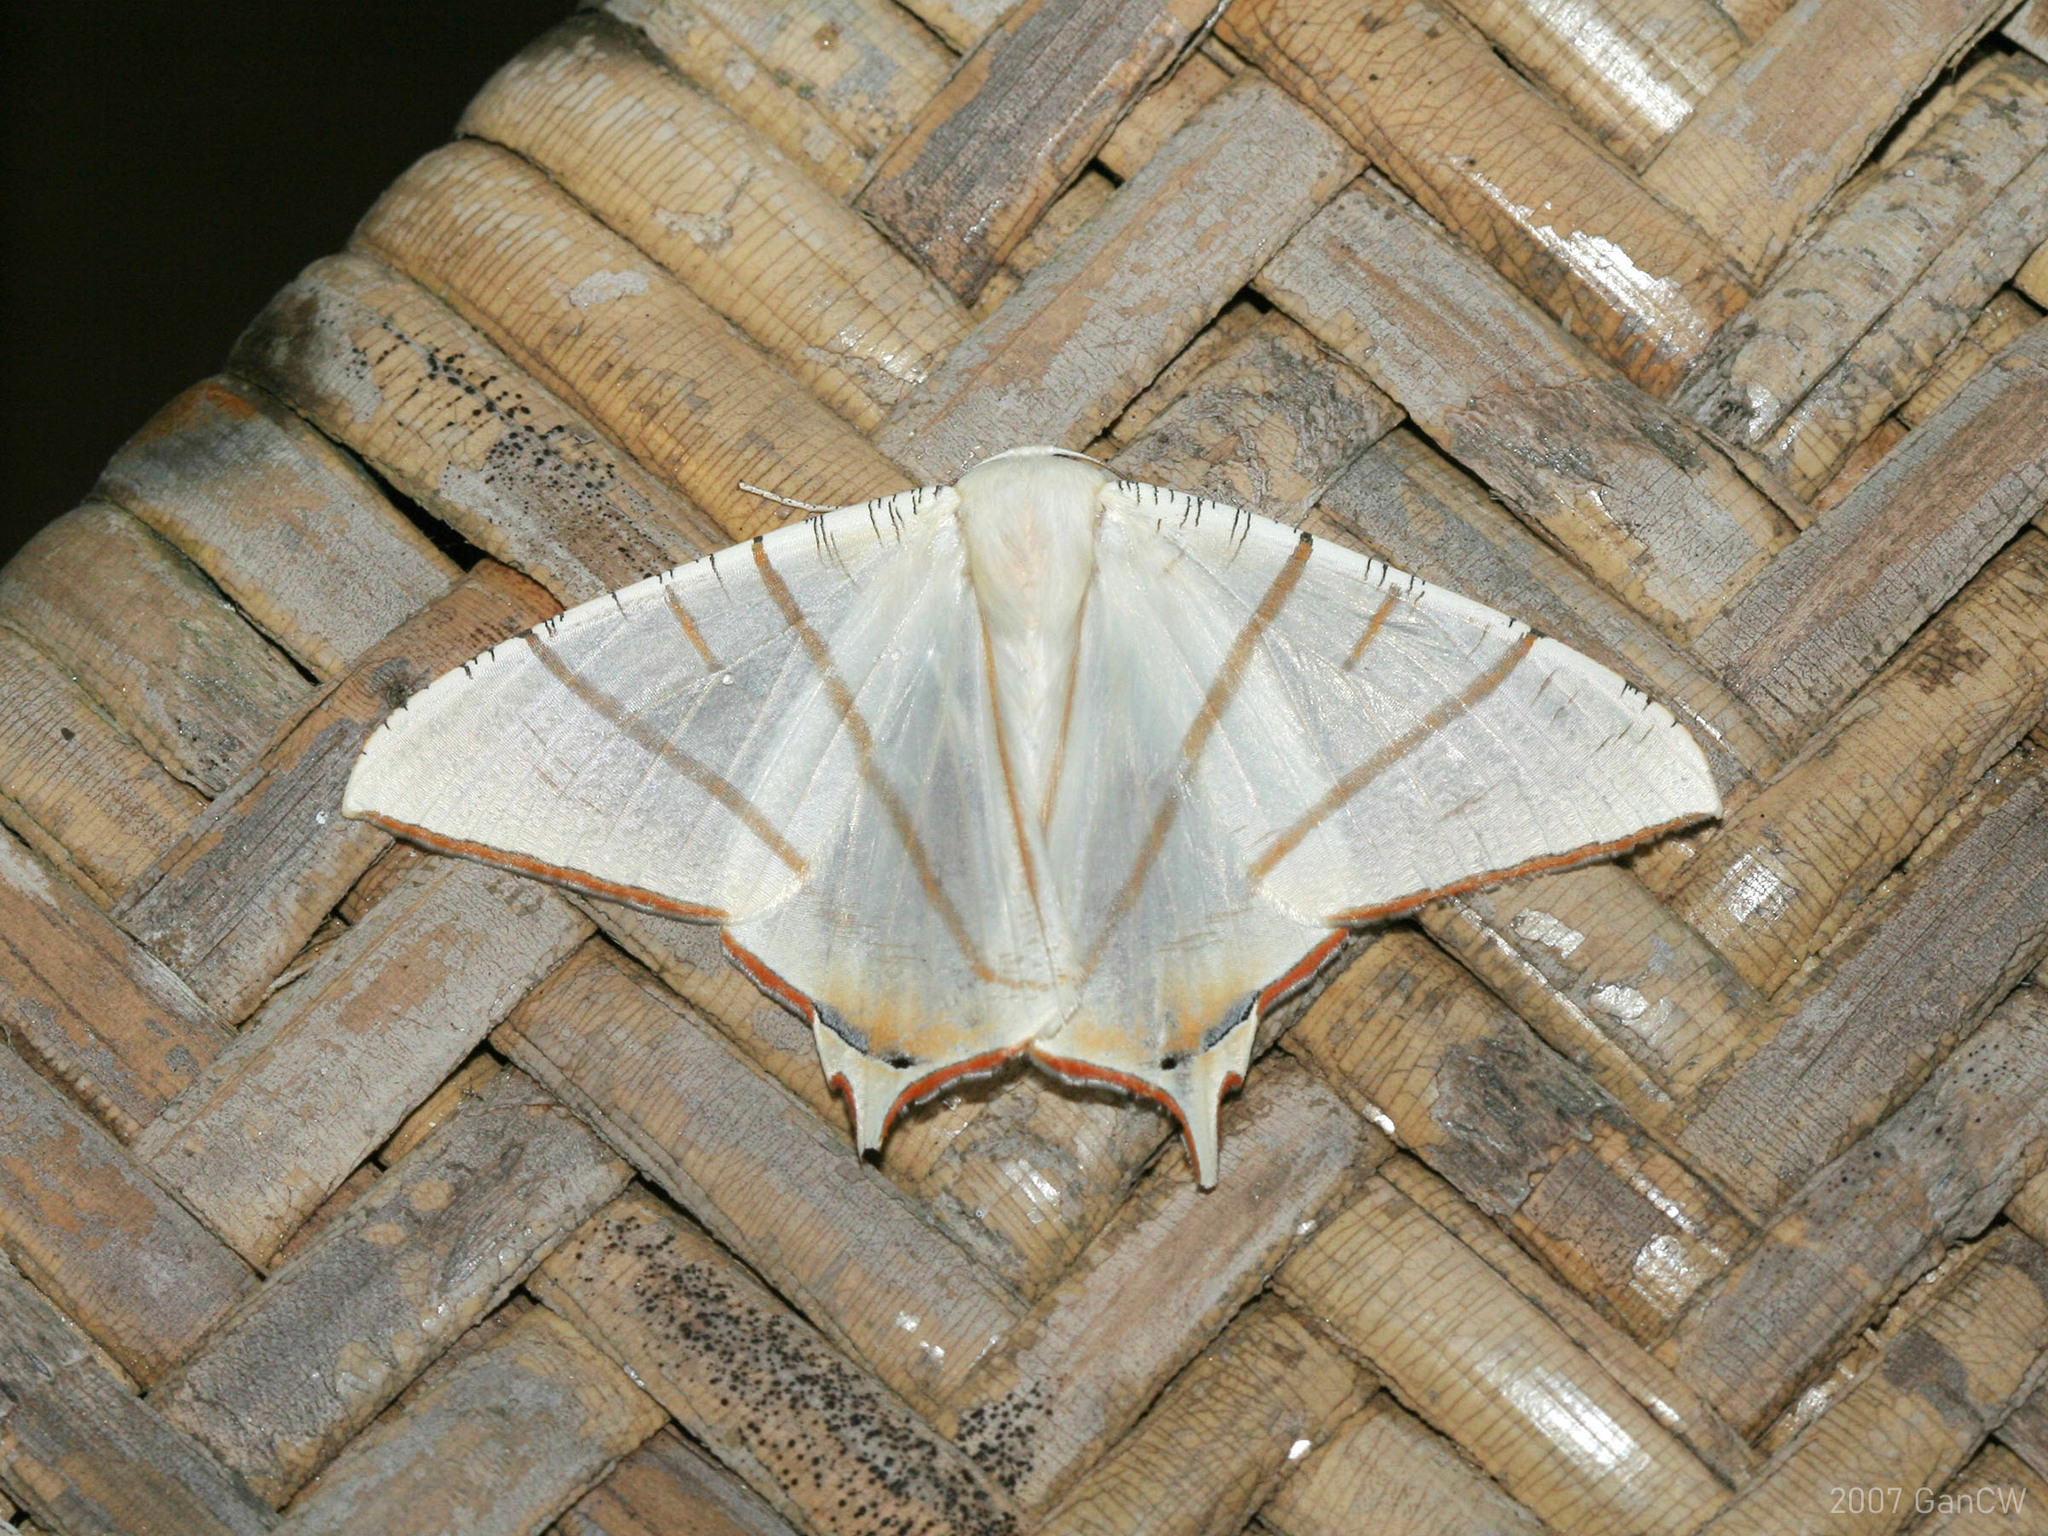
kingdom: Animalia
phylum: Arthropoda
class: Insecta
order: Lepidoptera
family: Geometridae
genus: Ourapteryx
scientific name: Ourapteryx claretta
